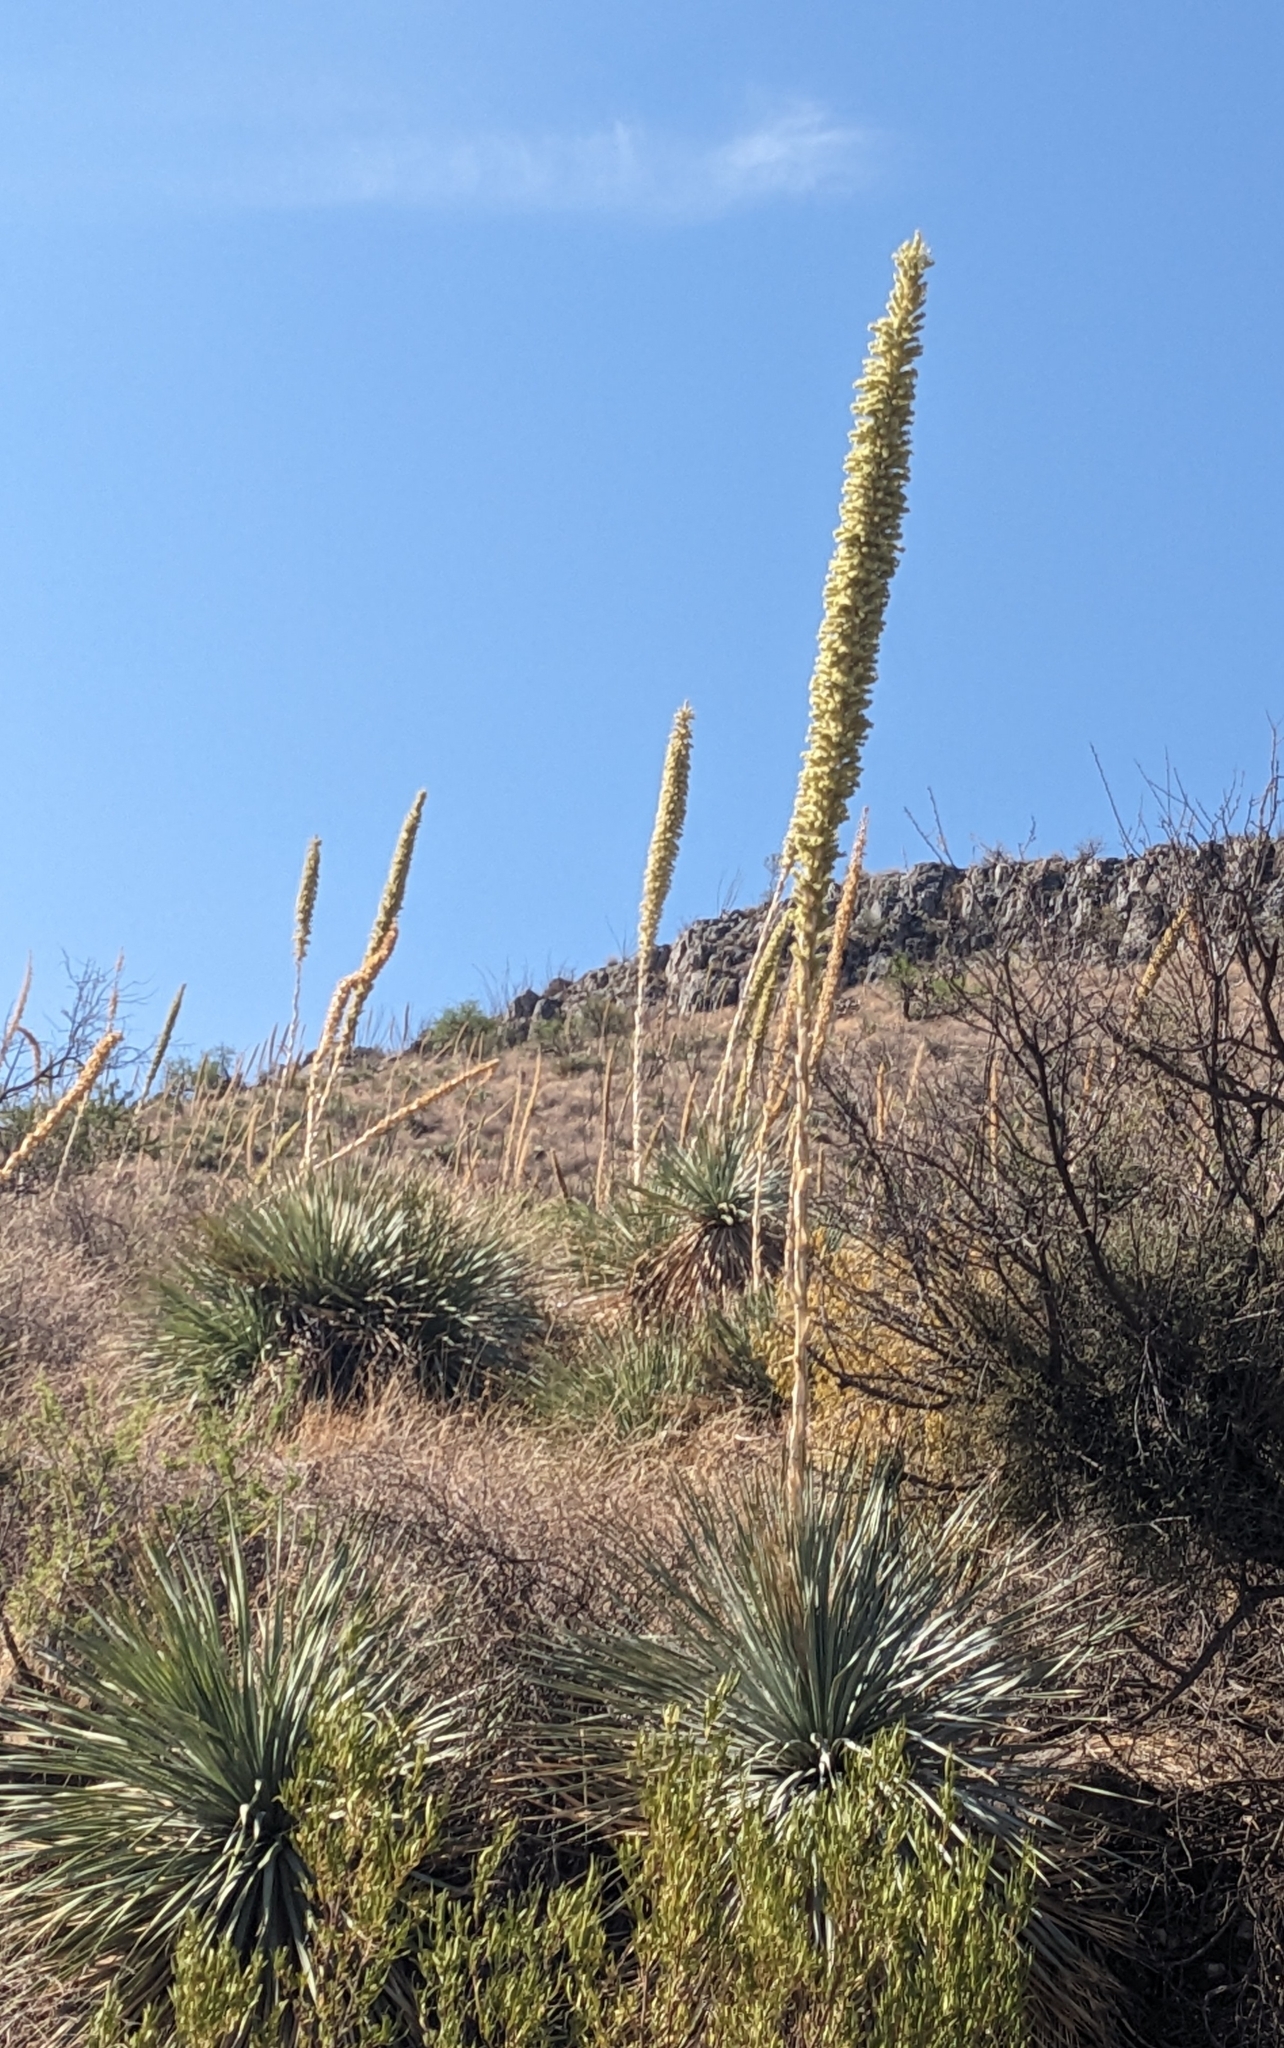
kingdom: Plantae
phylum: Tracheophyta
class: Liliopsida
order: Asparagales
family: Asparagaceae
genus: Dasylirion
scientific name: Dasylirion wheeleri
